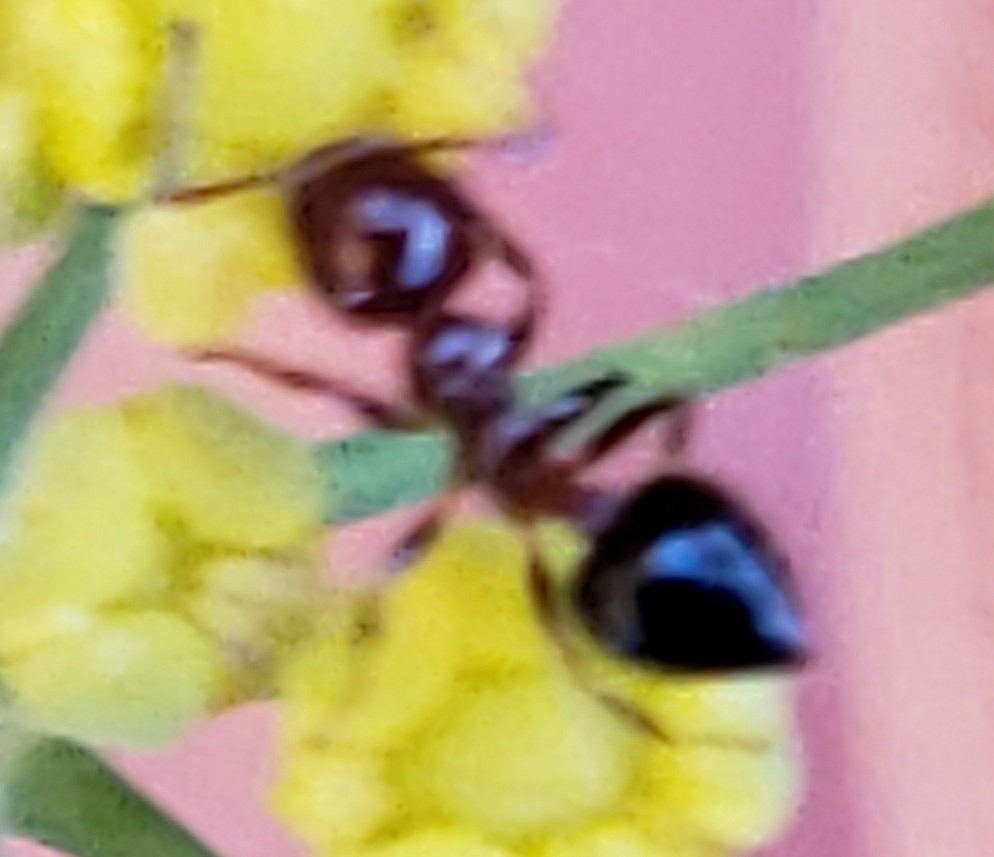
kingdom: Animalia
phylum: Arthropoda
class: Insecta
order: Hymenoptera
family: Formicidae
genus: Crematogaster
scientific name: Crematogaster laeviuscula
